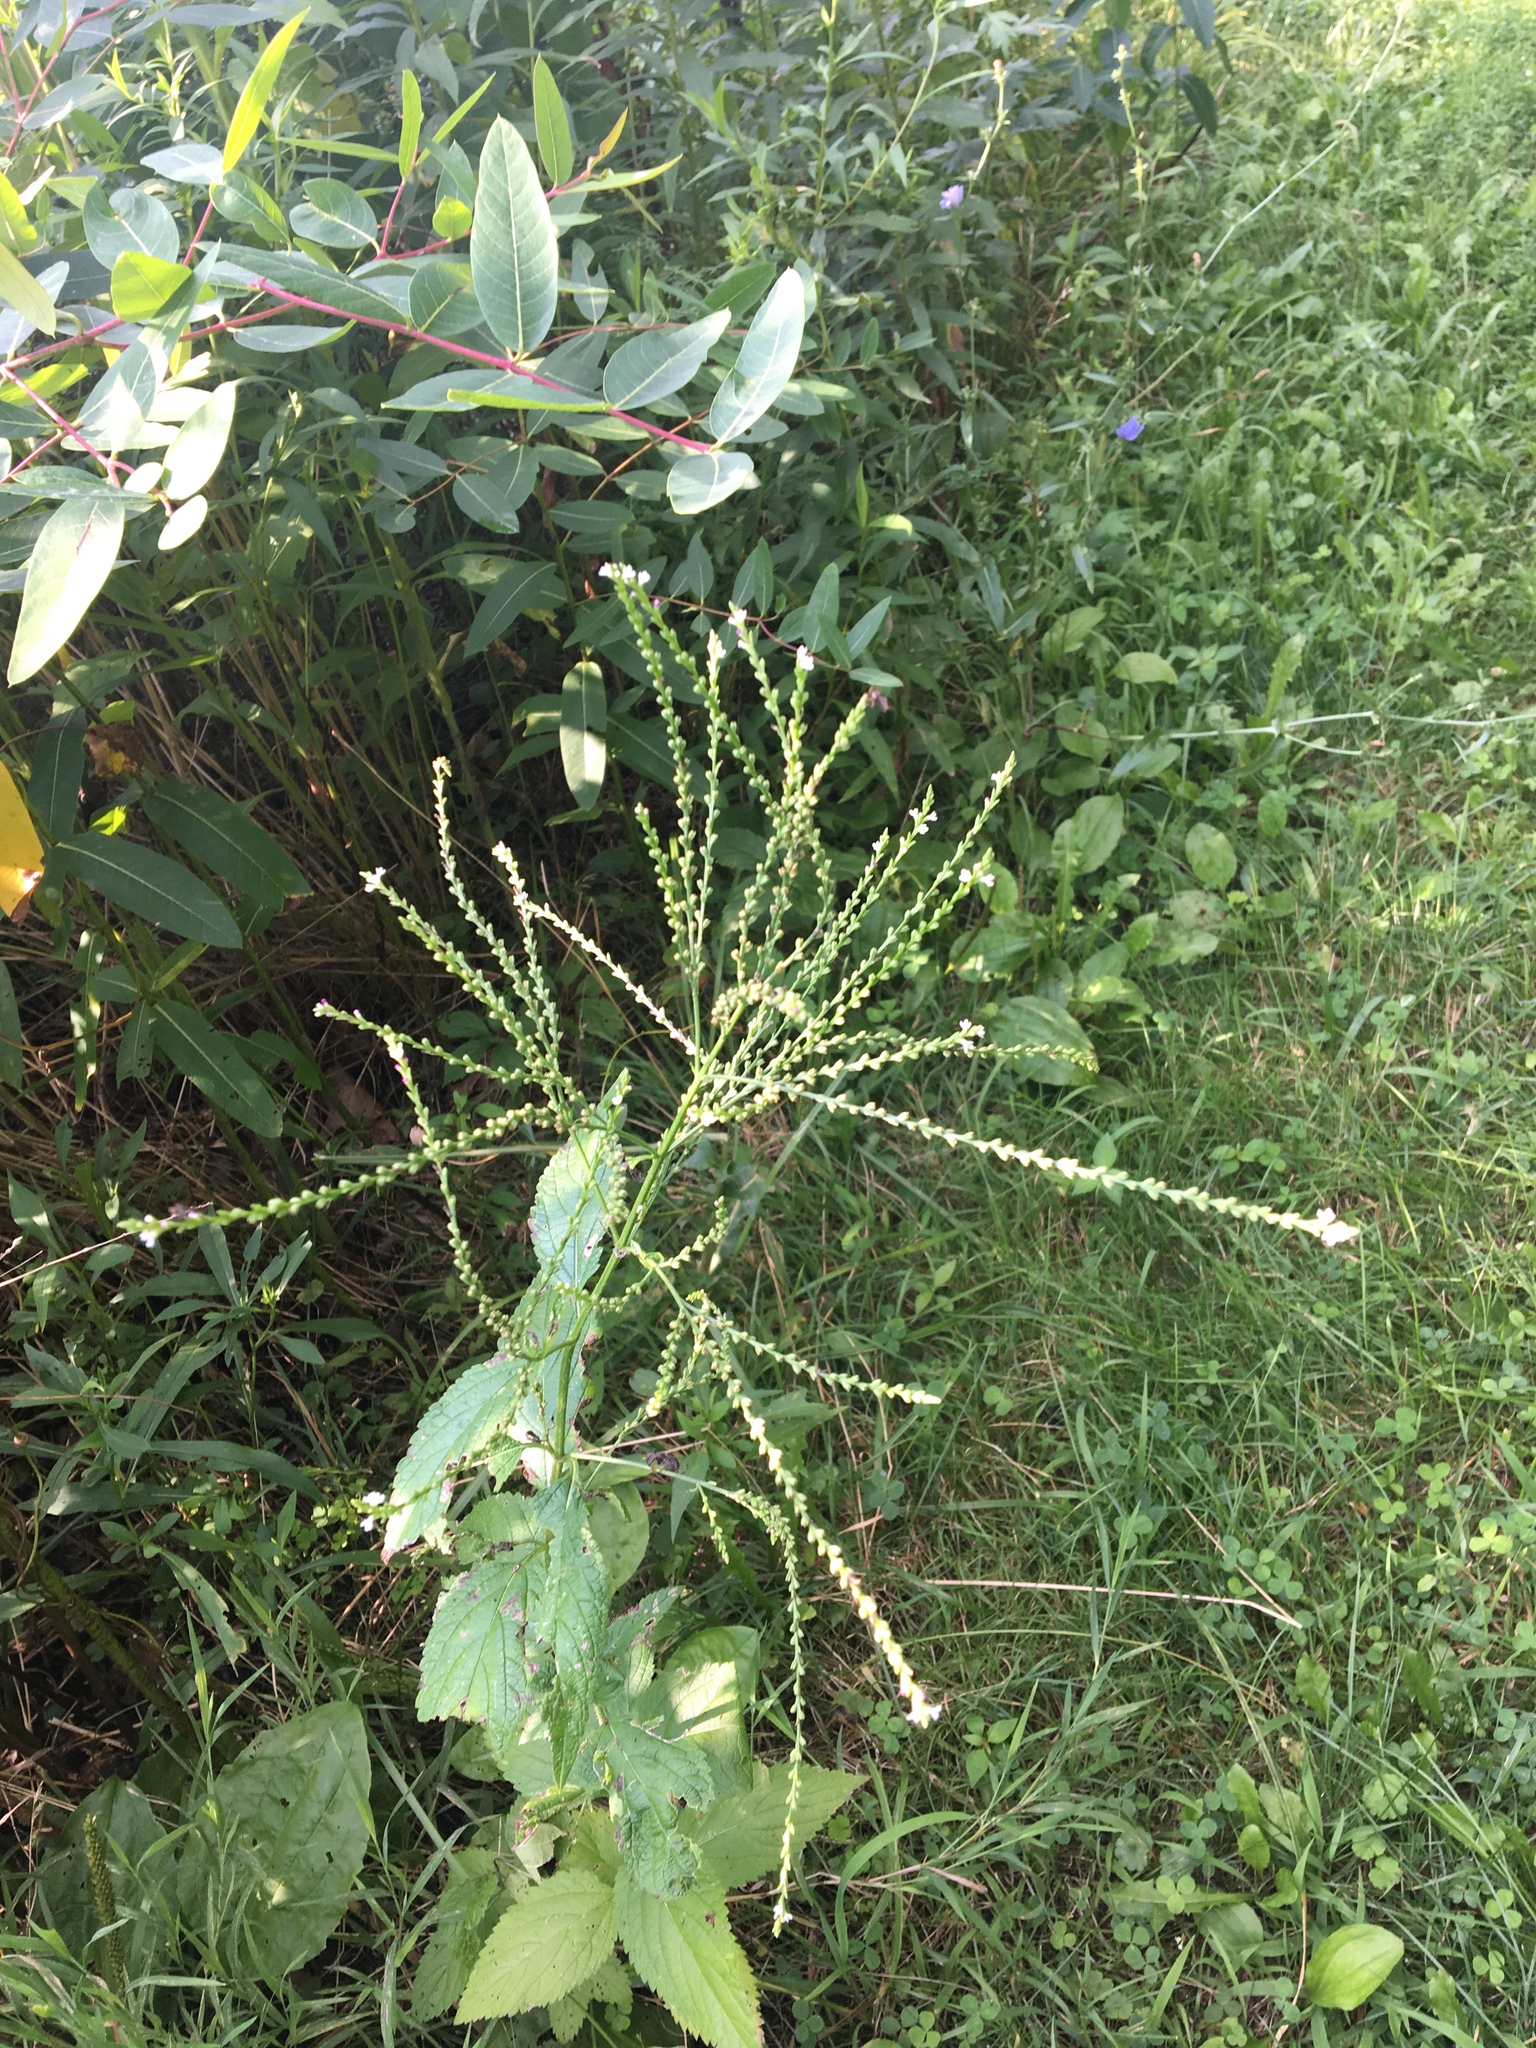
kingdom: Plantae
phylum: Tracheophyta
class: Magnoliopsida
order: Lamiales
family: Verbenaceae
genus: Verbena
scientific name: Verbena urticifolia
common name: Nettle-leaved vervain
